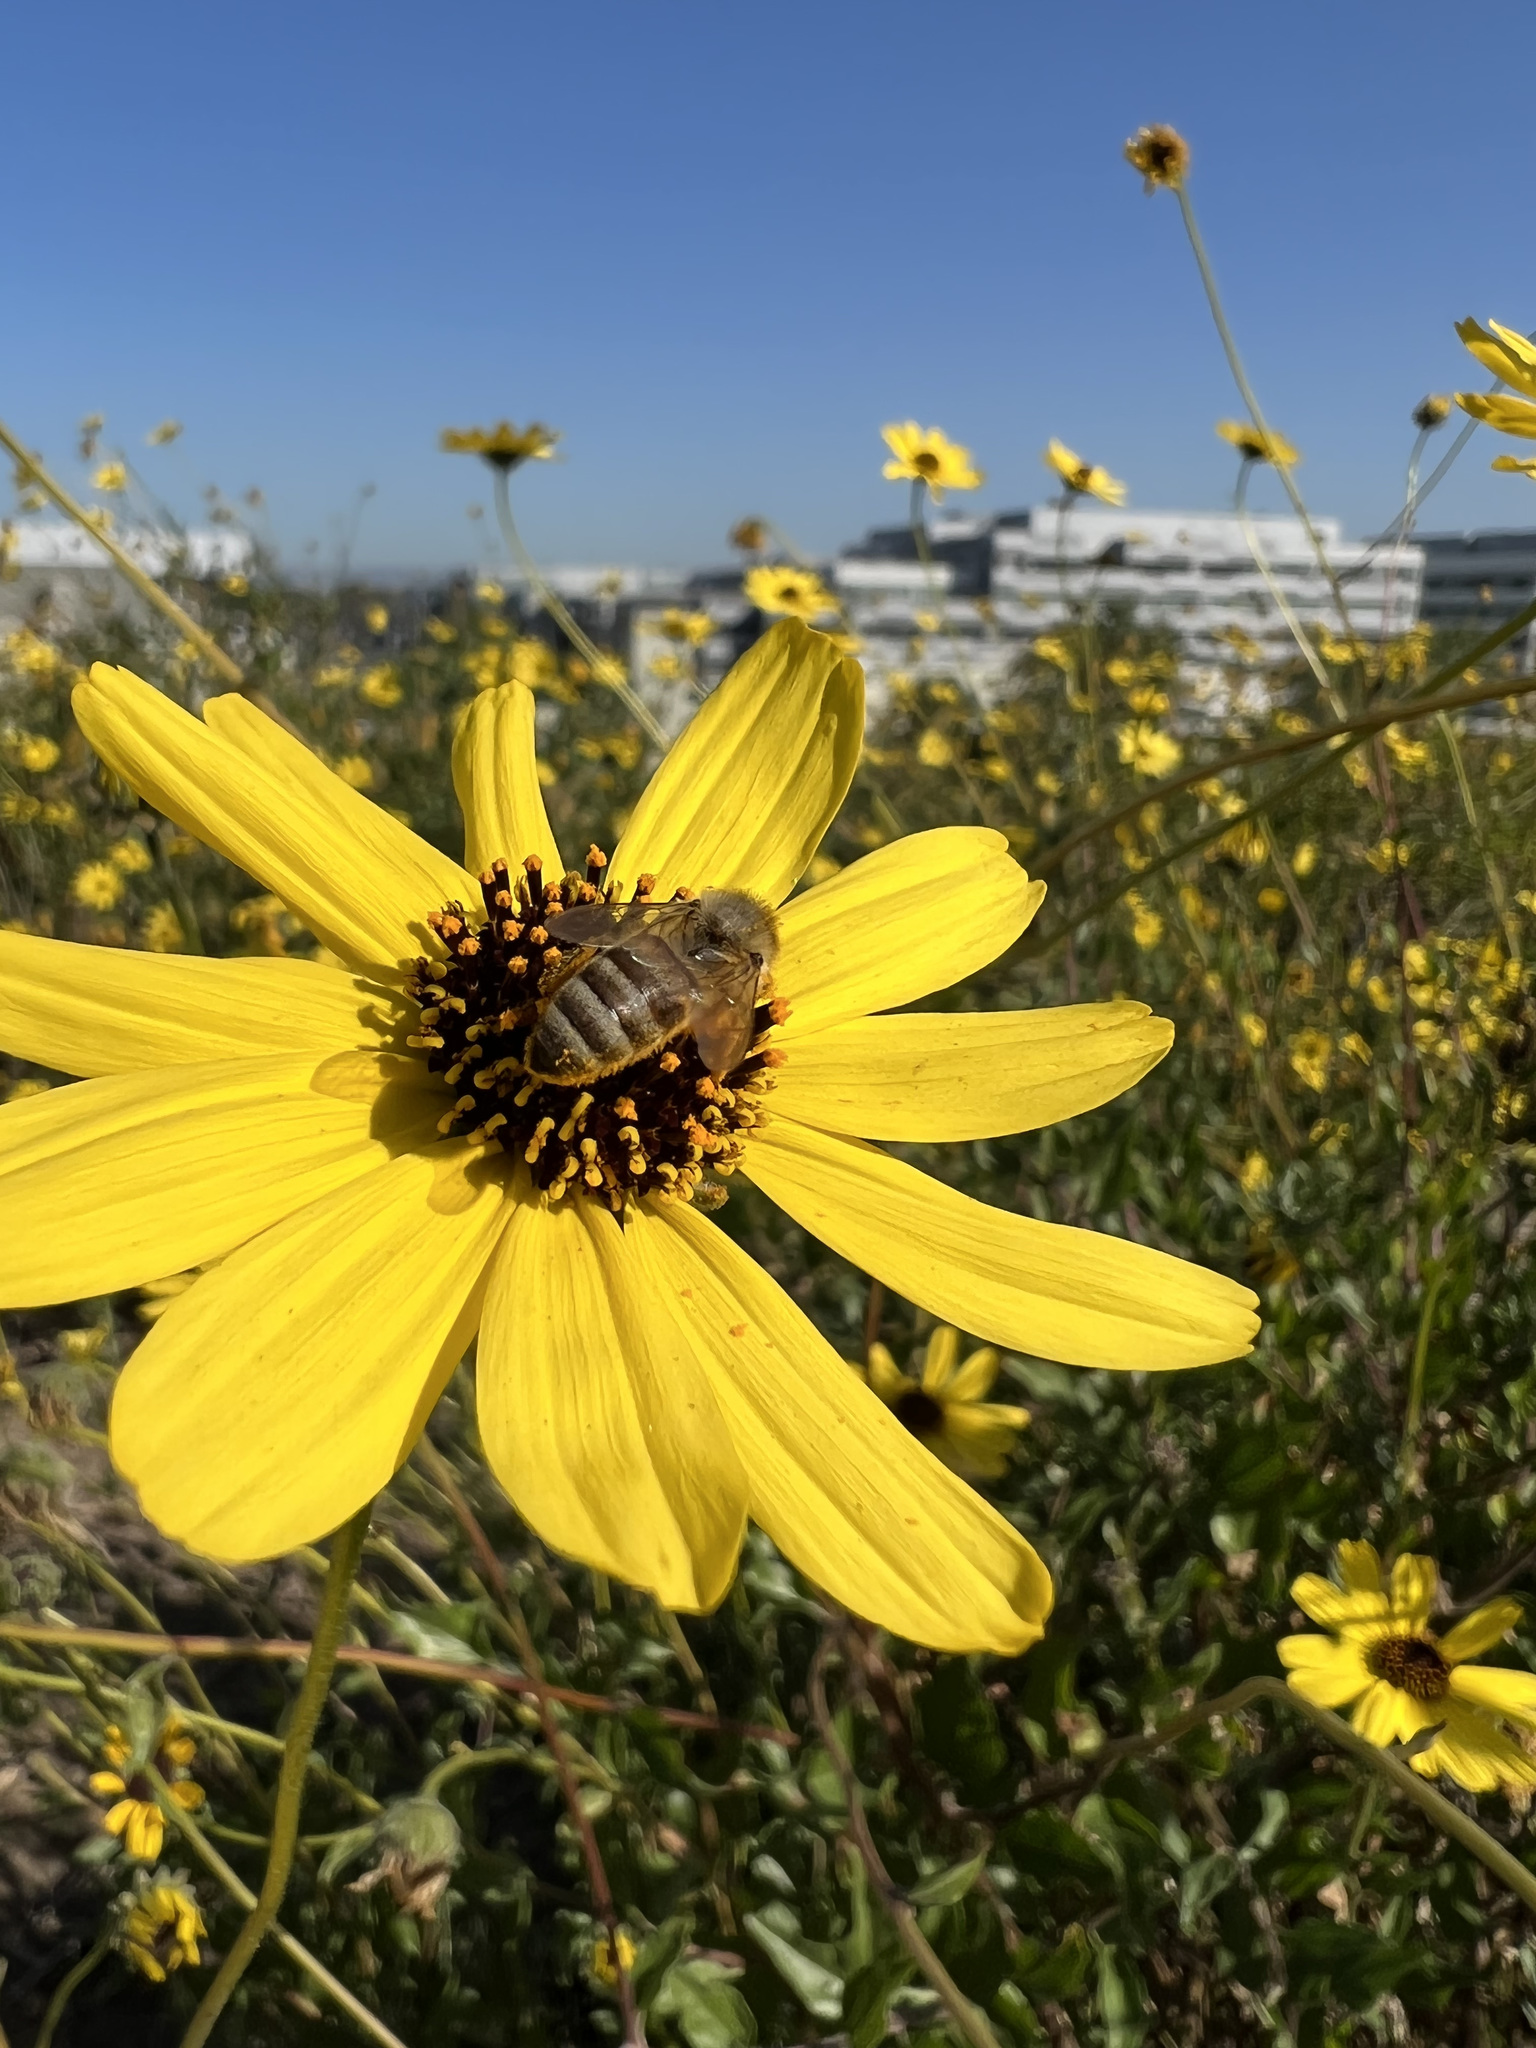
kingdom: Animalia
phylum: Arthropoda
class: Insecta
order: Hymenoptera
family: Apidae
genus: Apis
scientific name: Apis mellifera
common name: Honey bee
